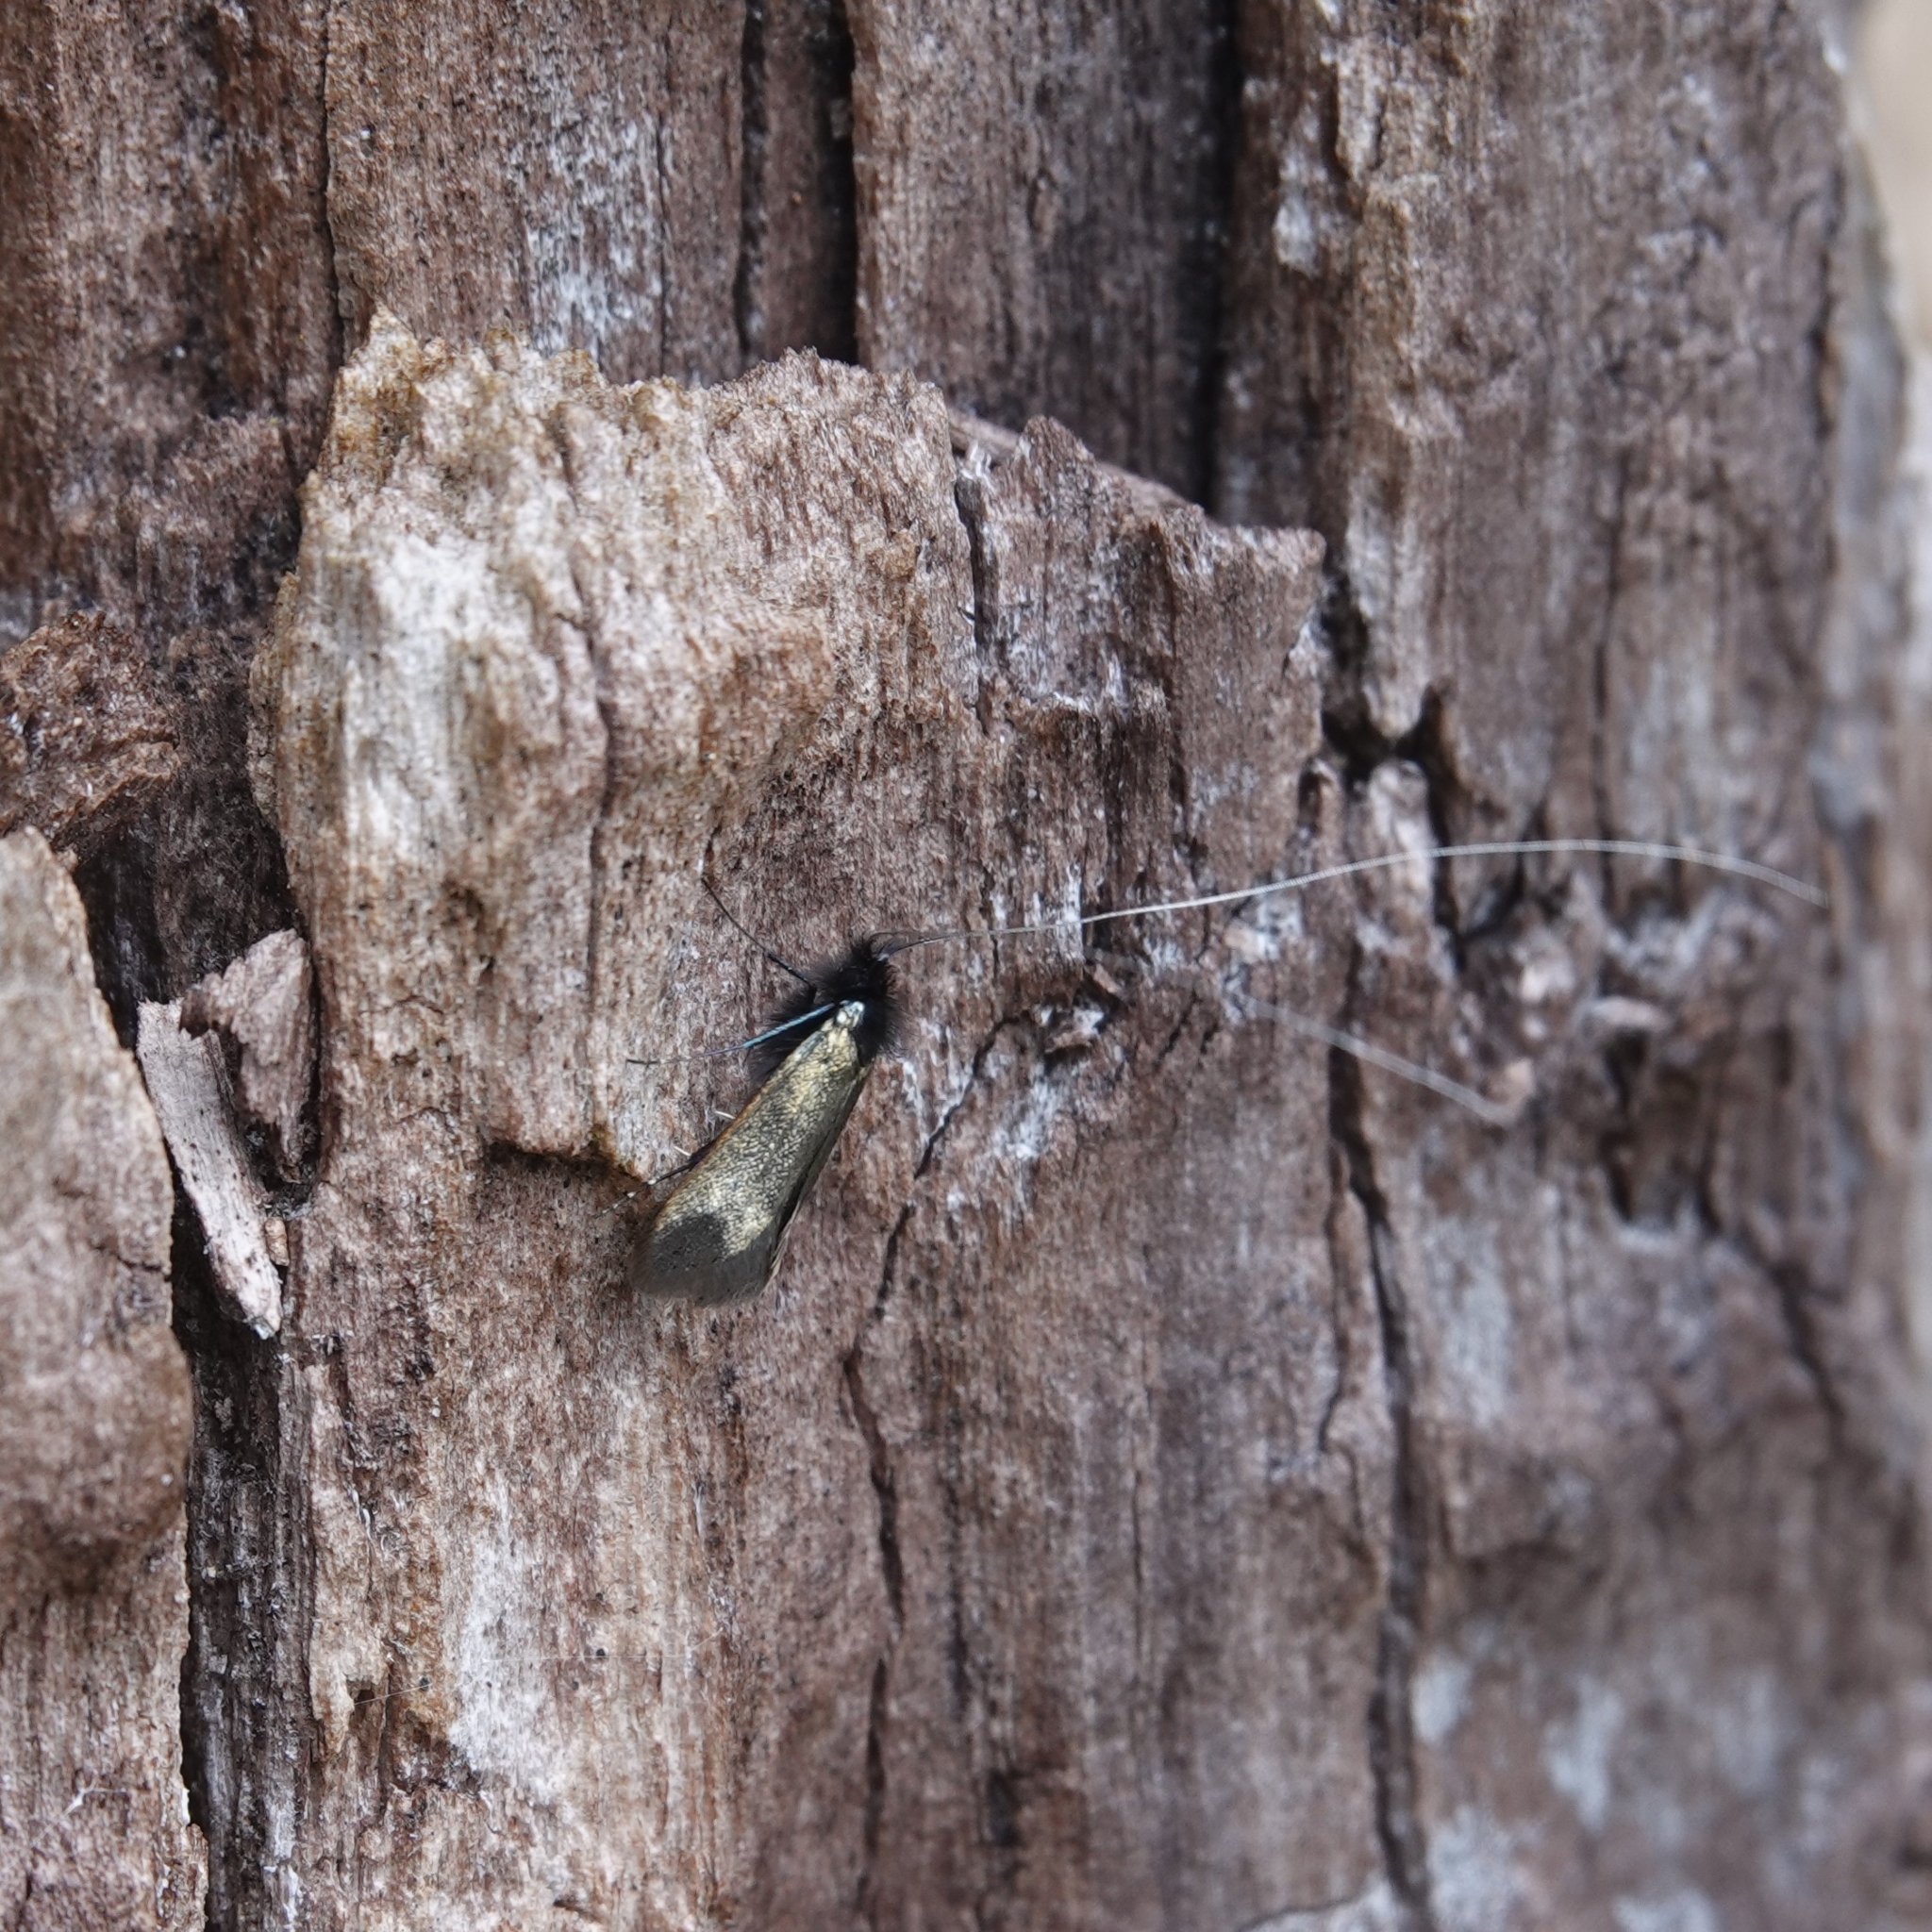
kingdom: Animalia
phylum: Arthropoda
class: Insecta
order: Lepidoptera
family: Adelidae
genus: Adela
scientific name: Adela viridella
